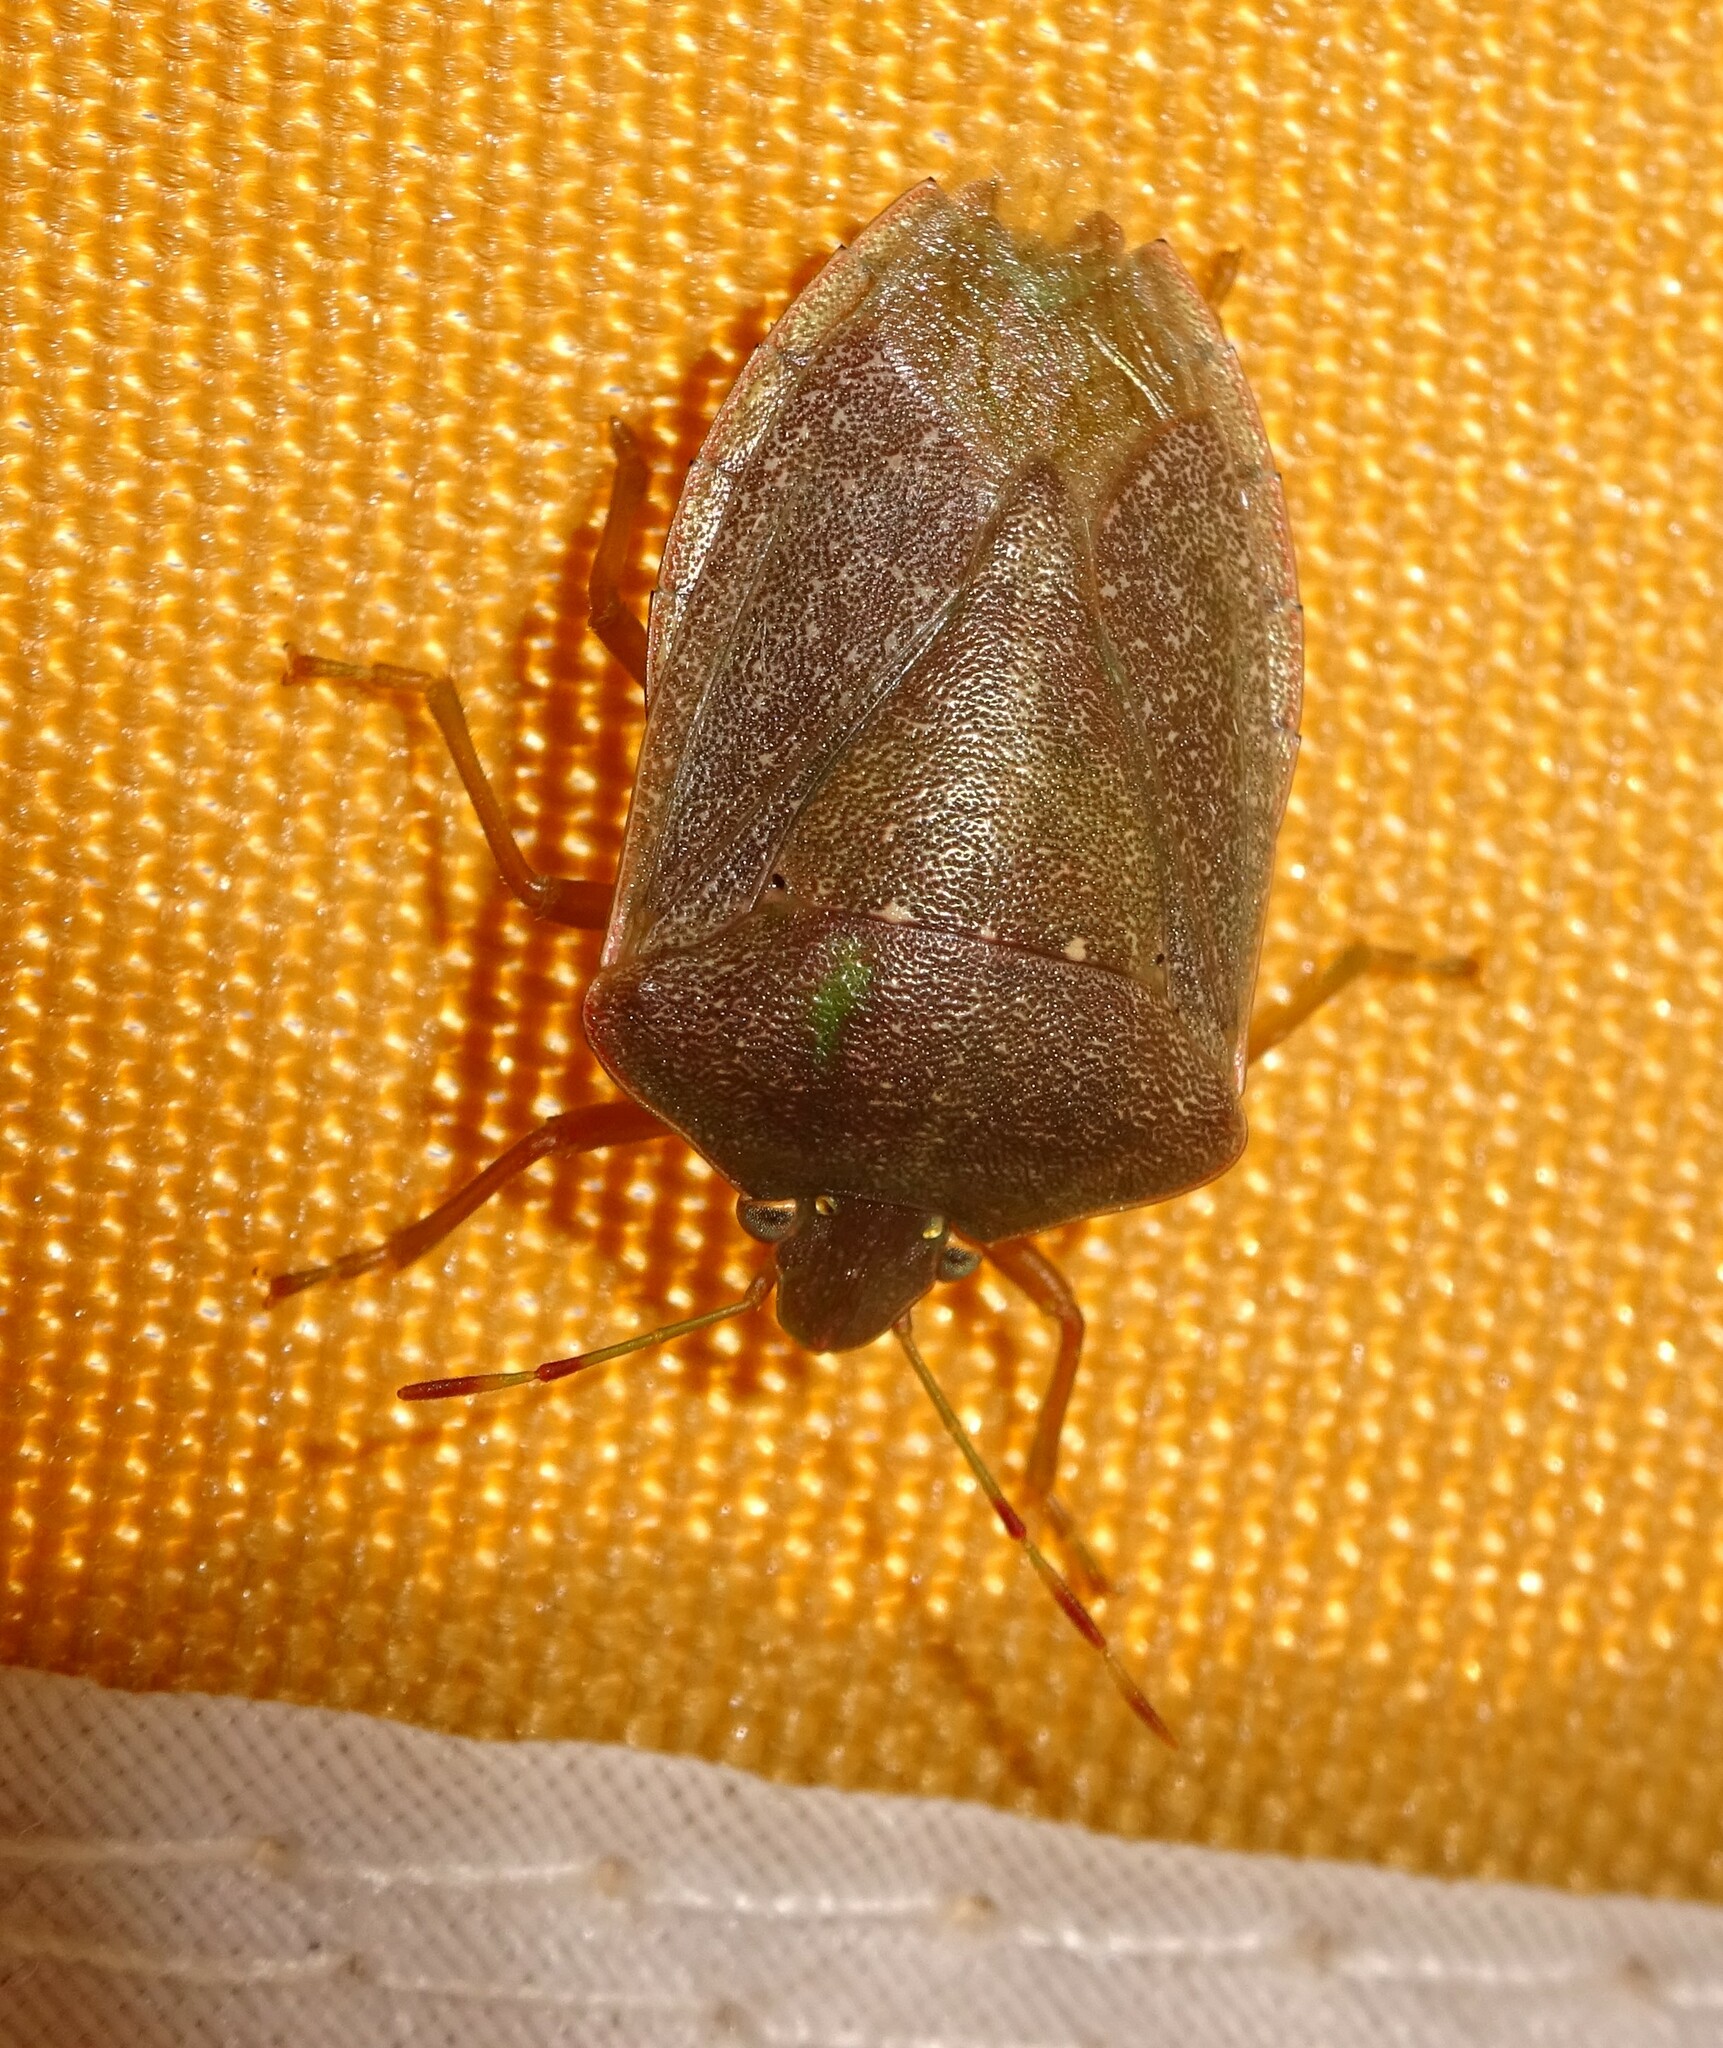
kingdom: Animalia
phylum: Arthropoda
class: Insecta
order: Hemiptera
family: Pentatomidae
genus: Nezara
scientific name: Nezara viridula
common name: Southern green stink bug
